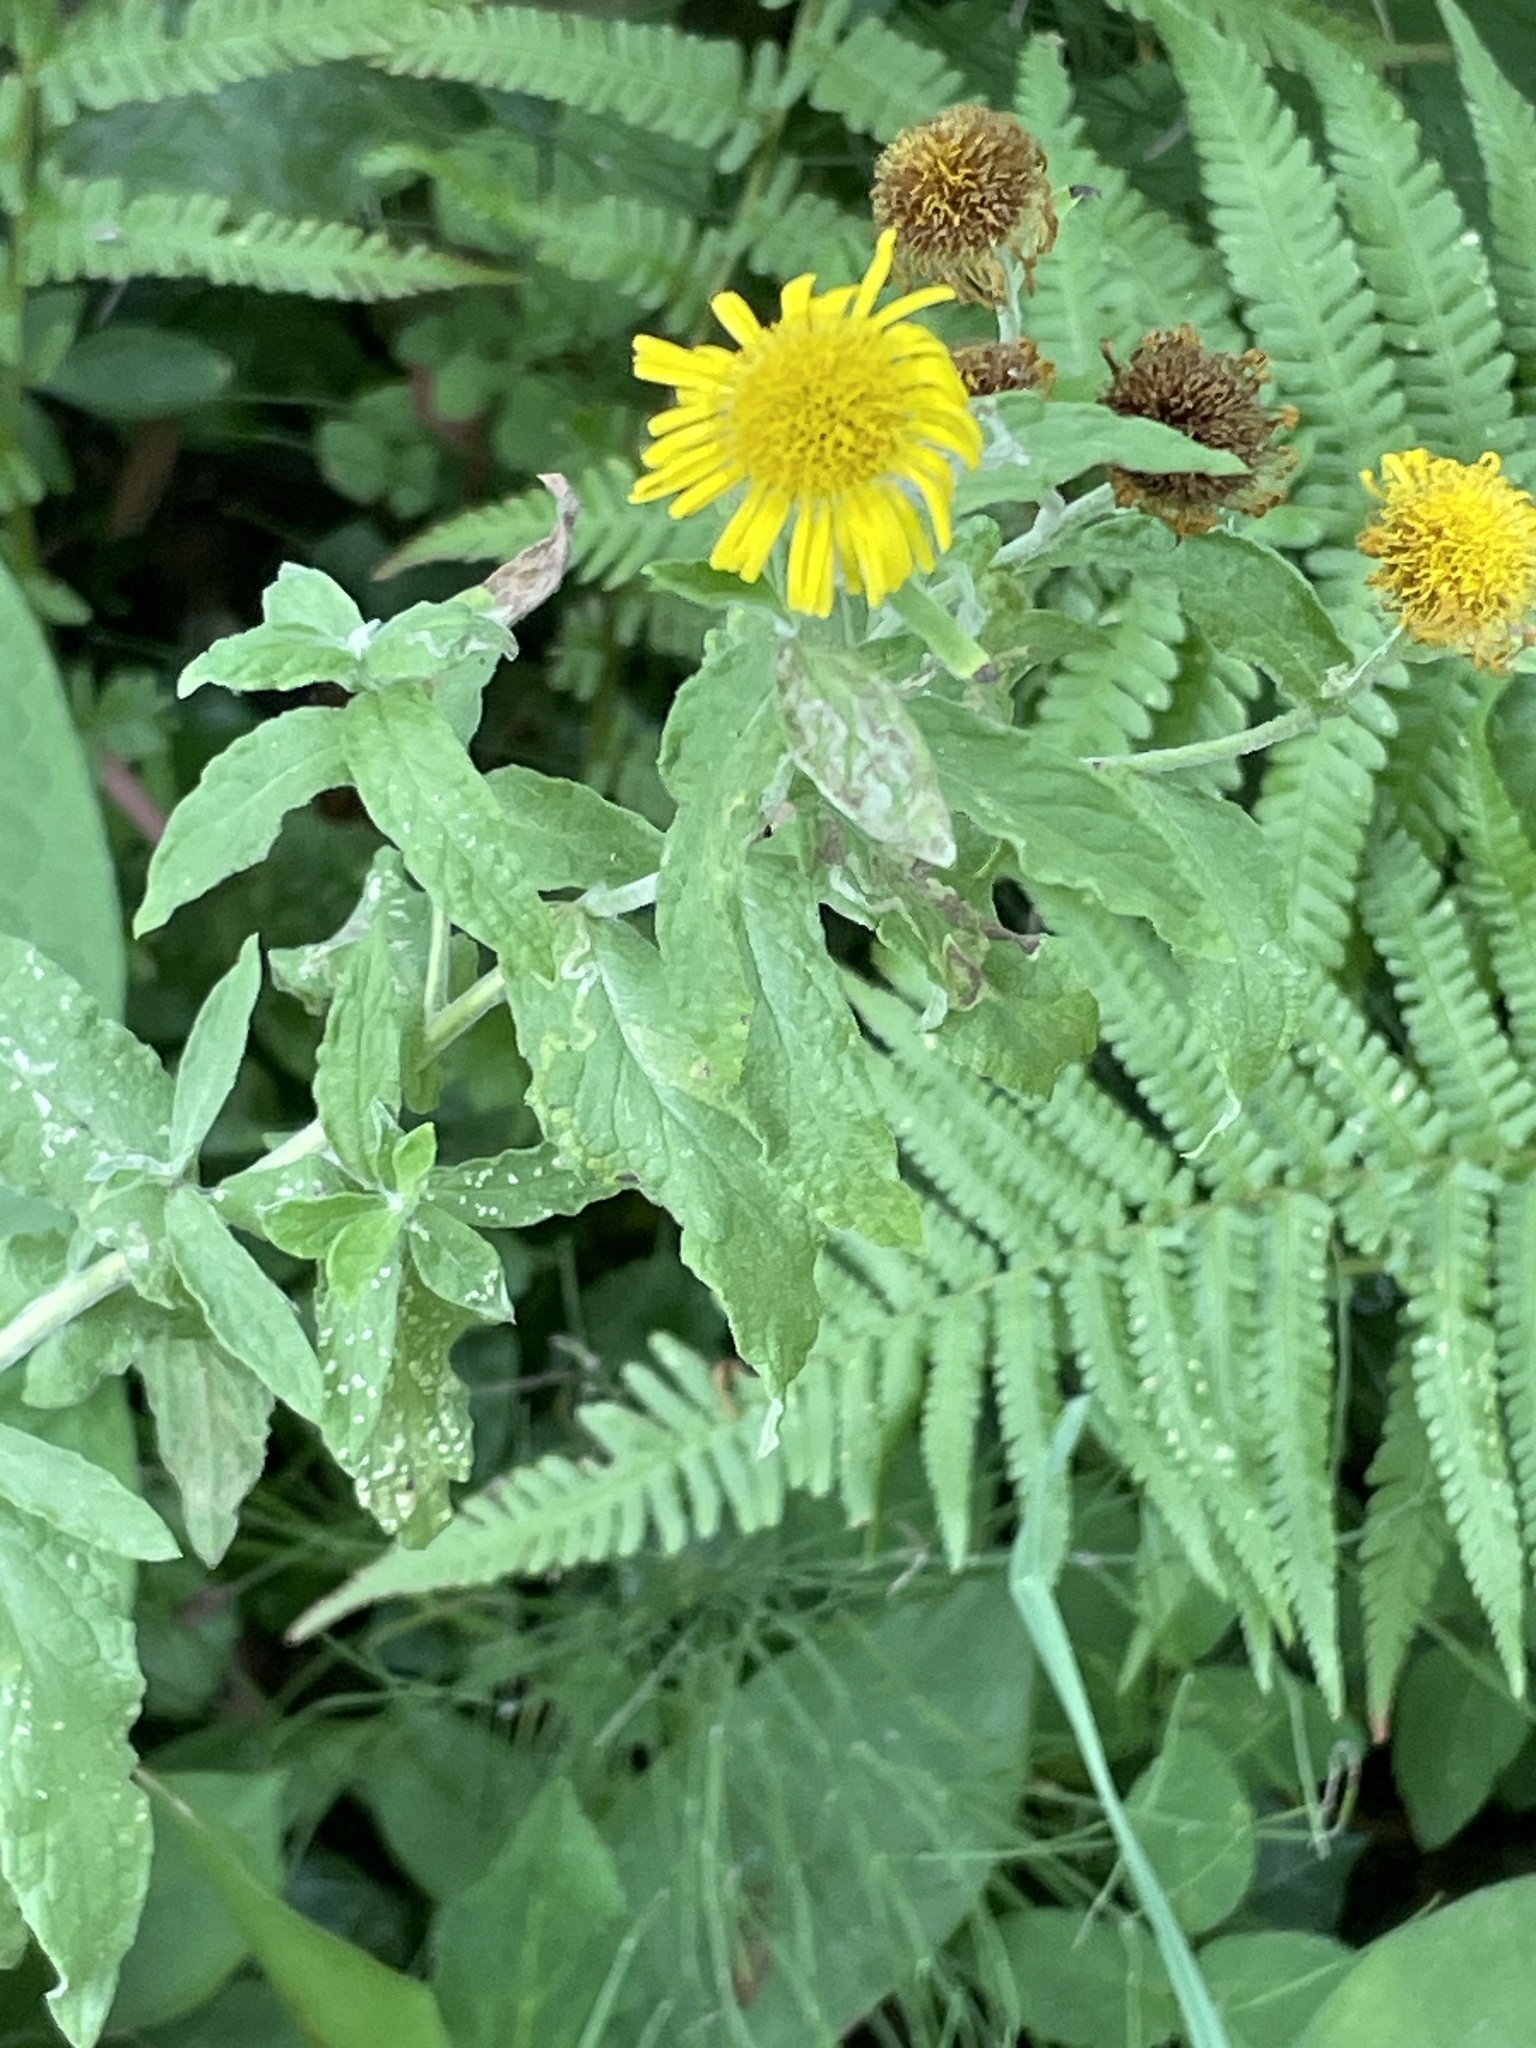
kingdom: Plantae
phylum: Tracheophyta
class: Magnoliopsida
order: Asterales
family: Asteraceae
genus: Pulicaria
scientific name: Pulicaria dysenterica
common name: Common fleabane
